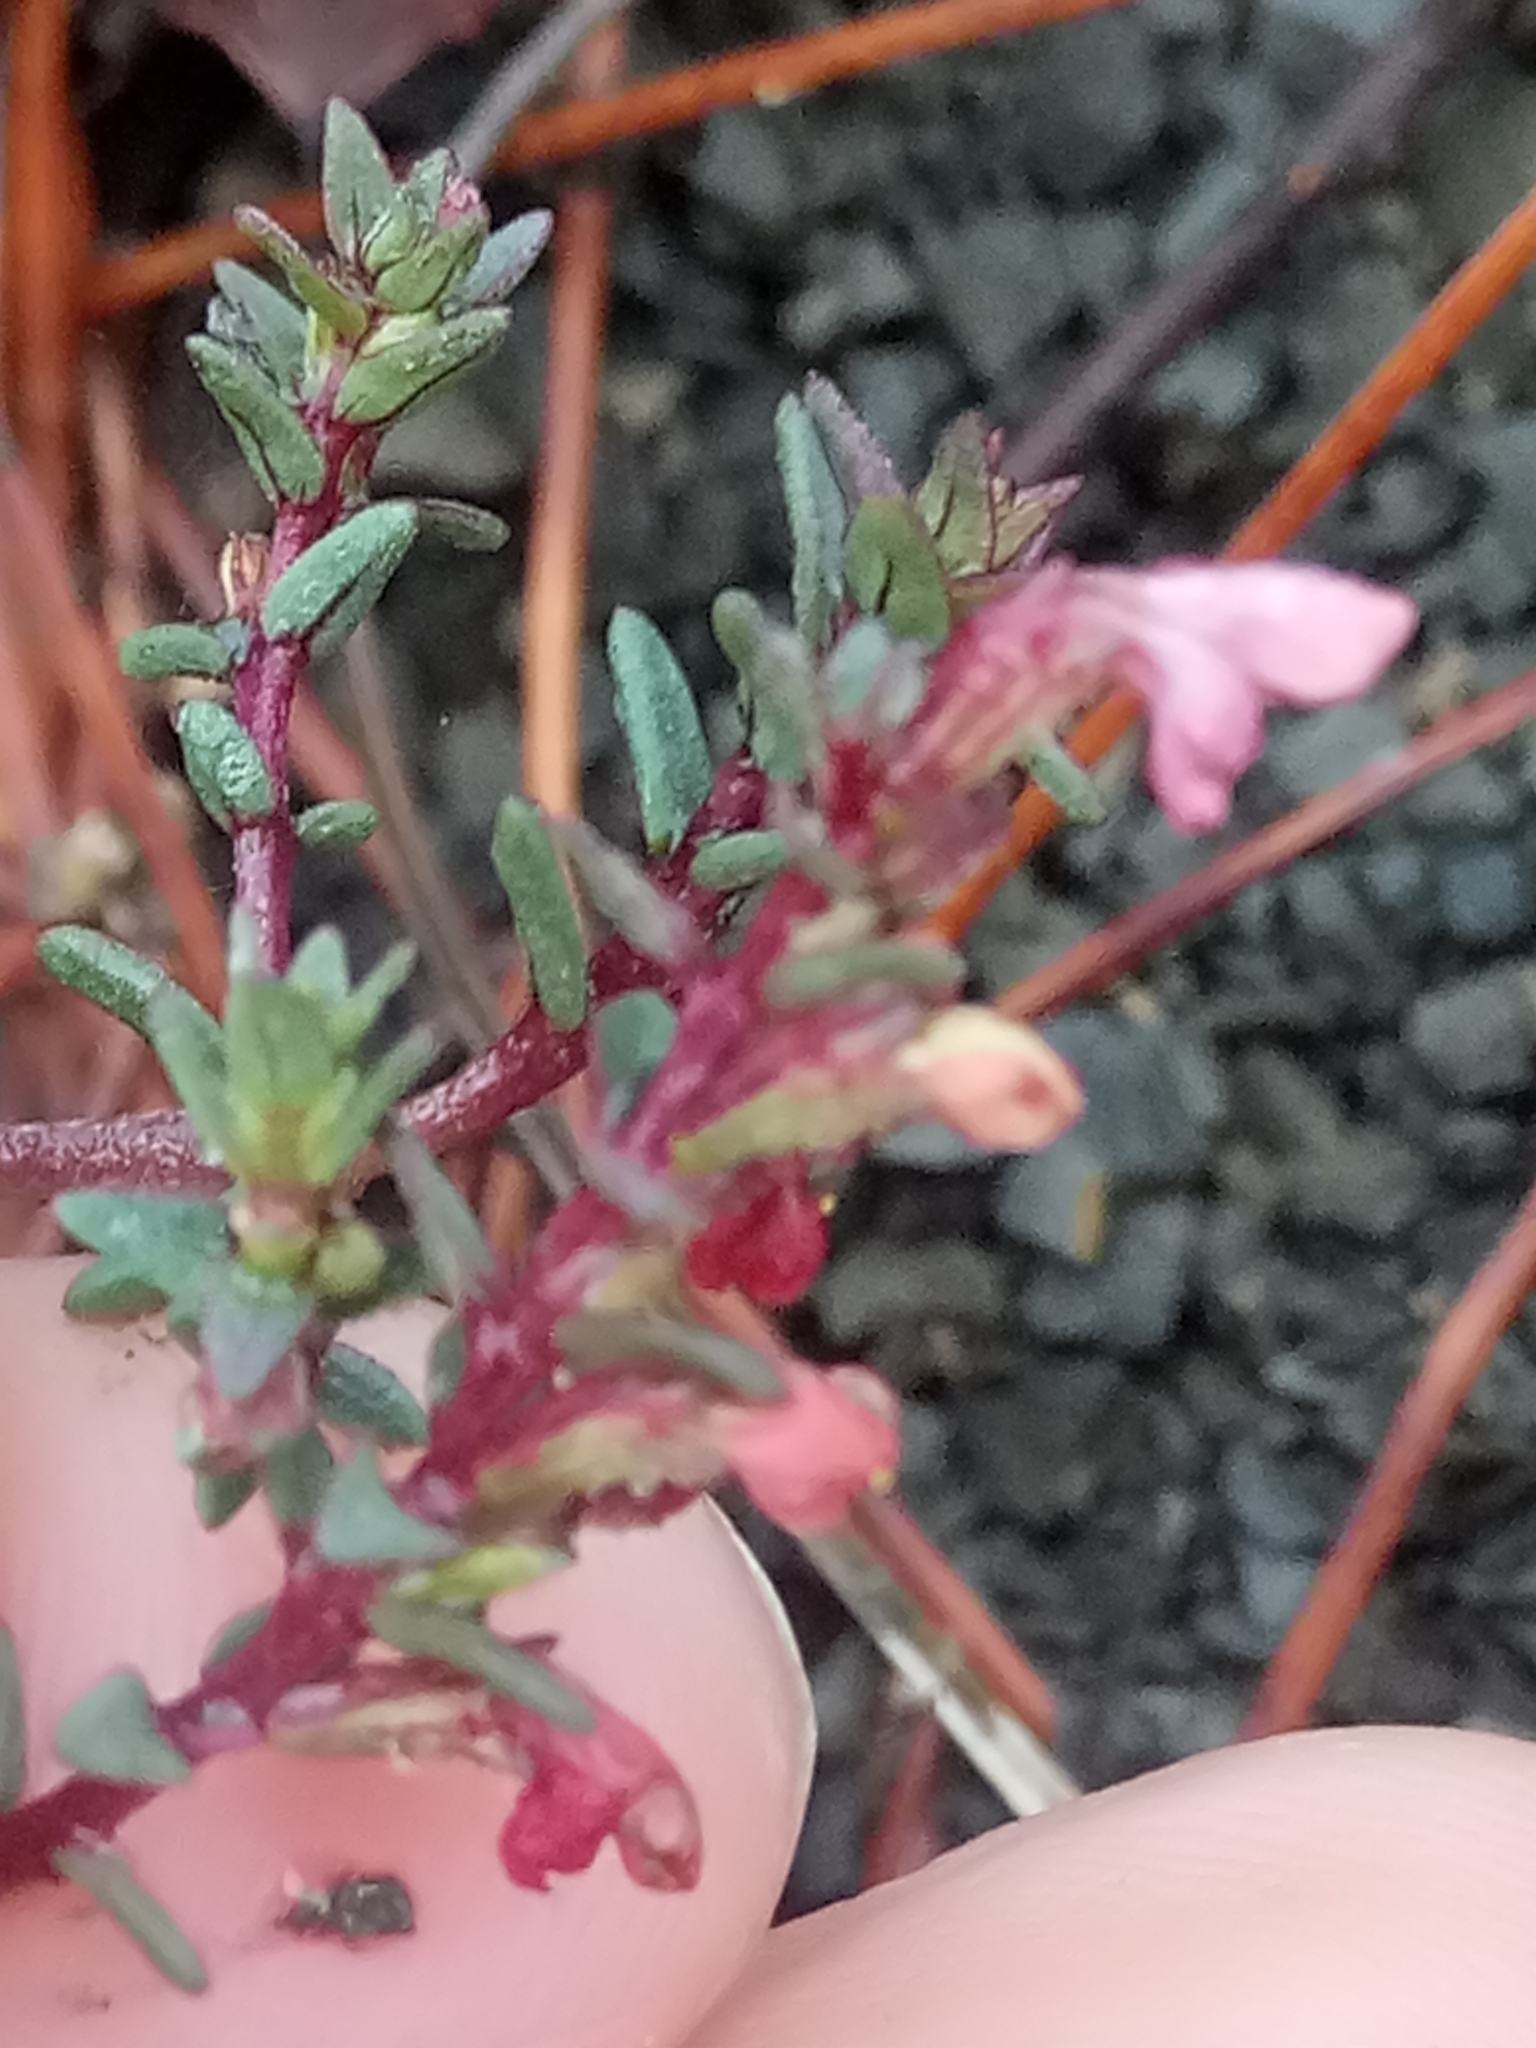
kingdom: Plantae
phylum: Tracheophyta
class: Magnoliopsida
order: Lamiales
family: Orobanchaceae
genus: Odontites
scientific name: Odontites bolligeri
